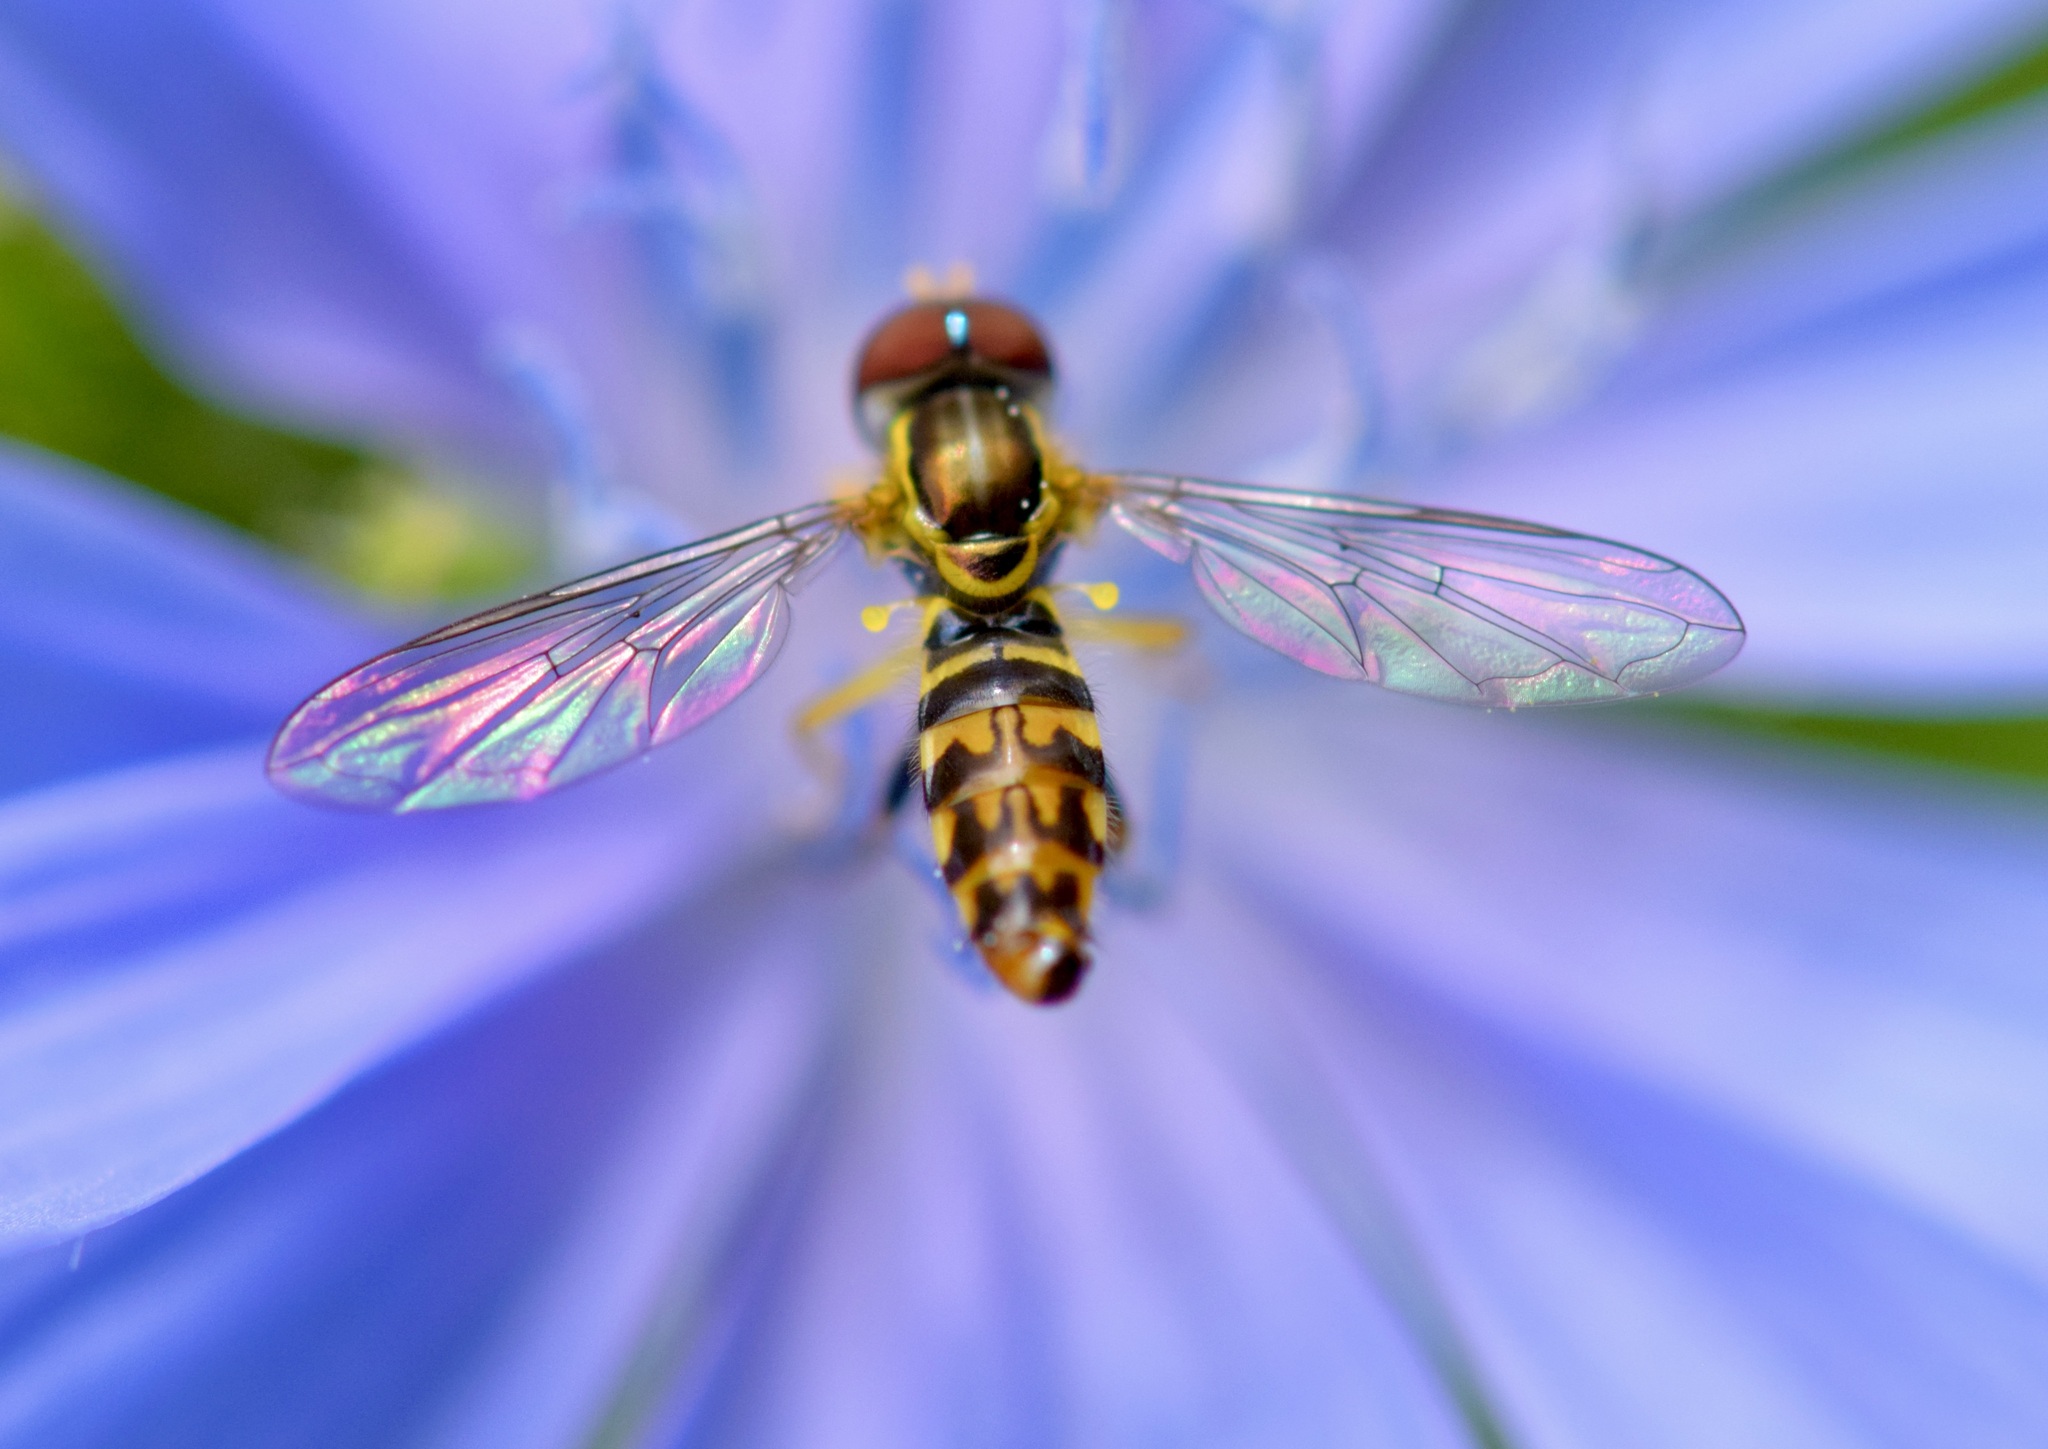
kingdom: Animalia
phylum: Arthropoda
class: Insecta
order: Diptera
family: Syrphidae
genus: Toxomerus
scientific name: Toxomerus geminatus
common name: Eastern calligrapher
